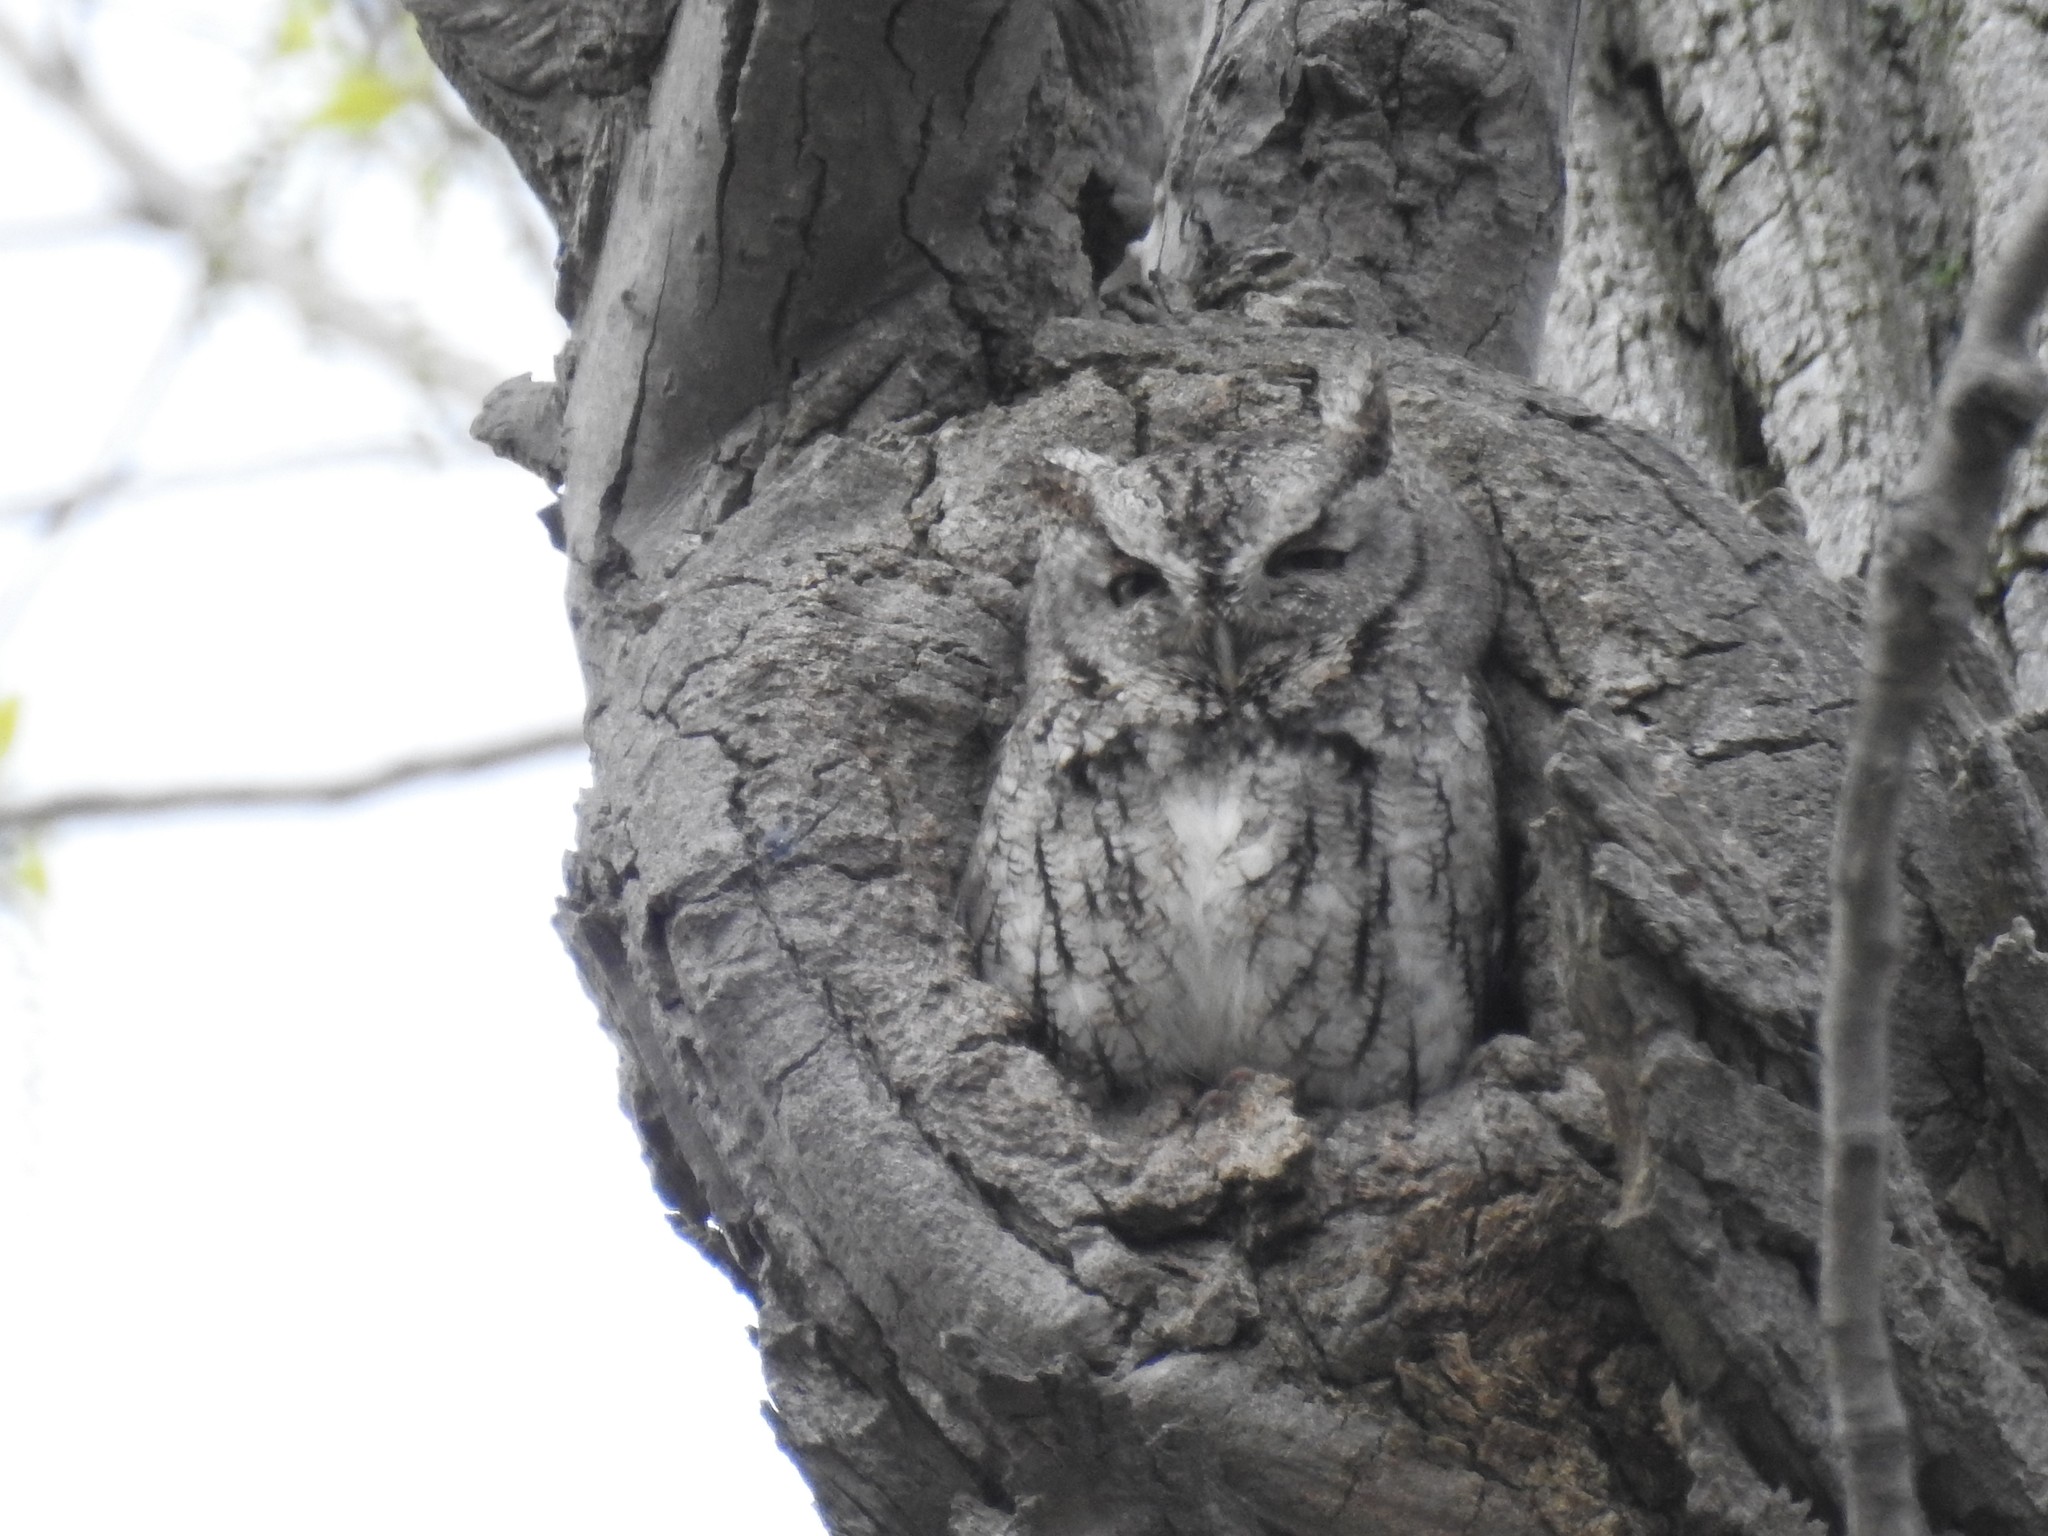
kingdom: Animalia
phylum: Chordata
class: Aves
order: Strigiformes
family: Strigidae
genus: Megascops
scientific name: Megascops asio
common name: Eastern screech-owl
